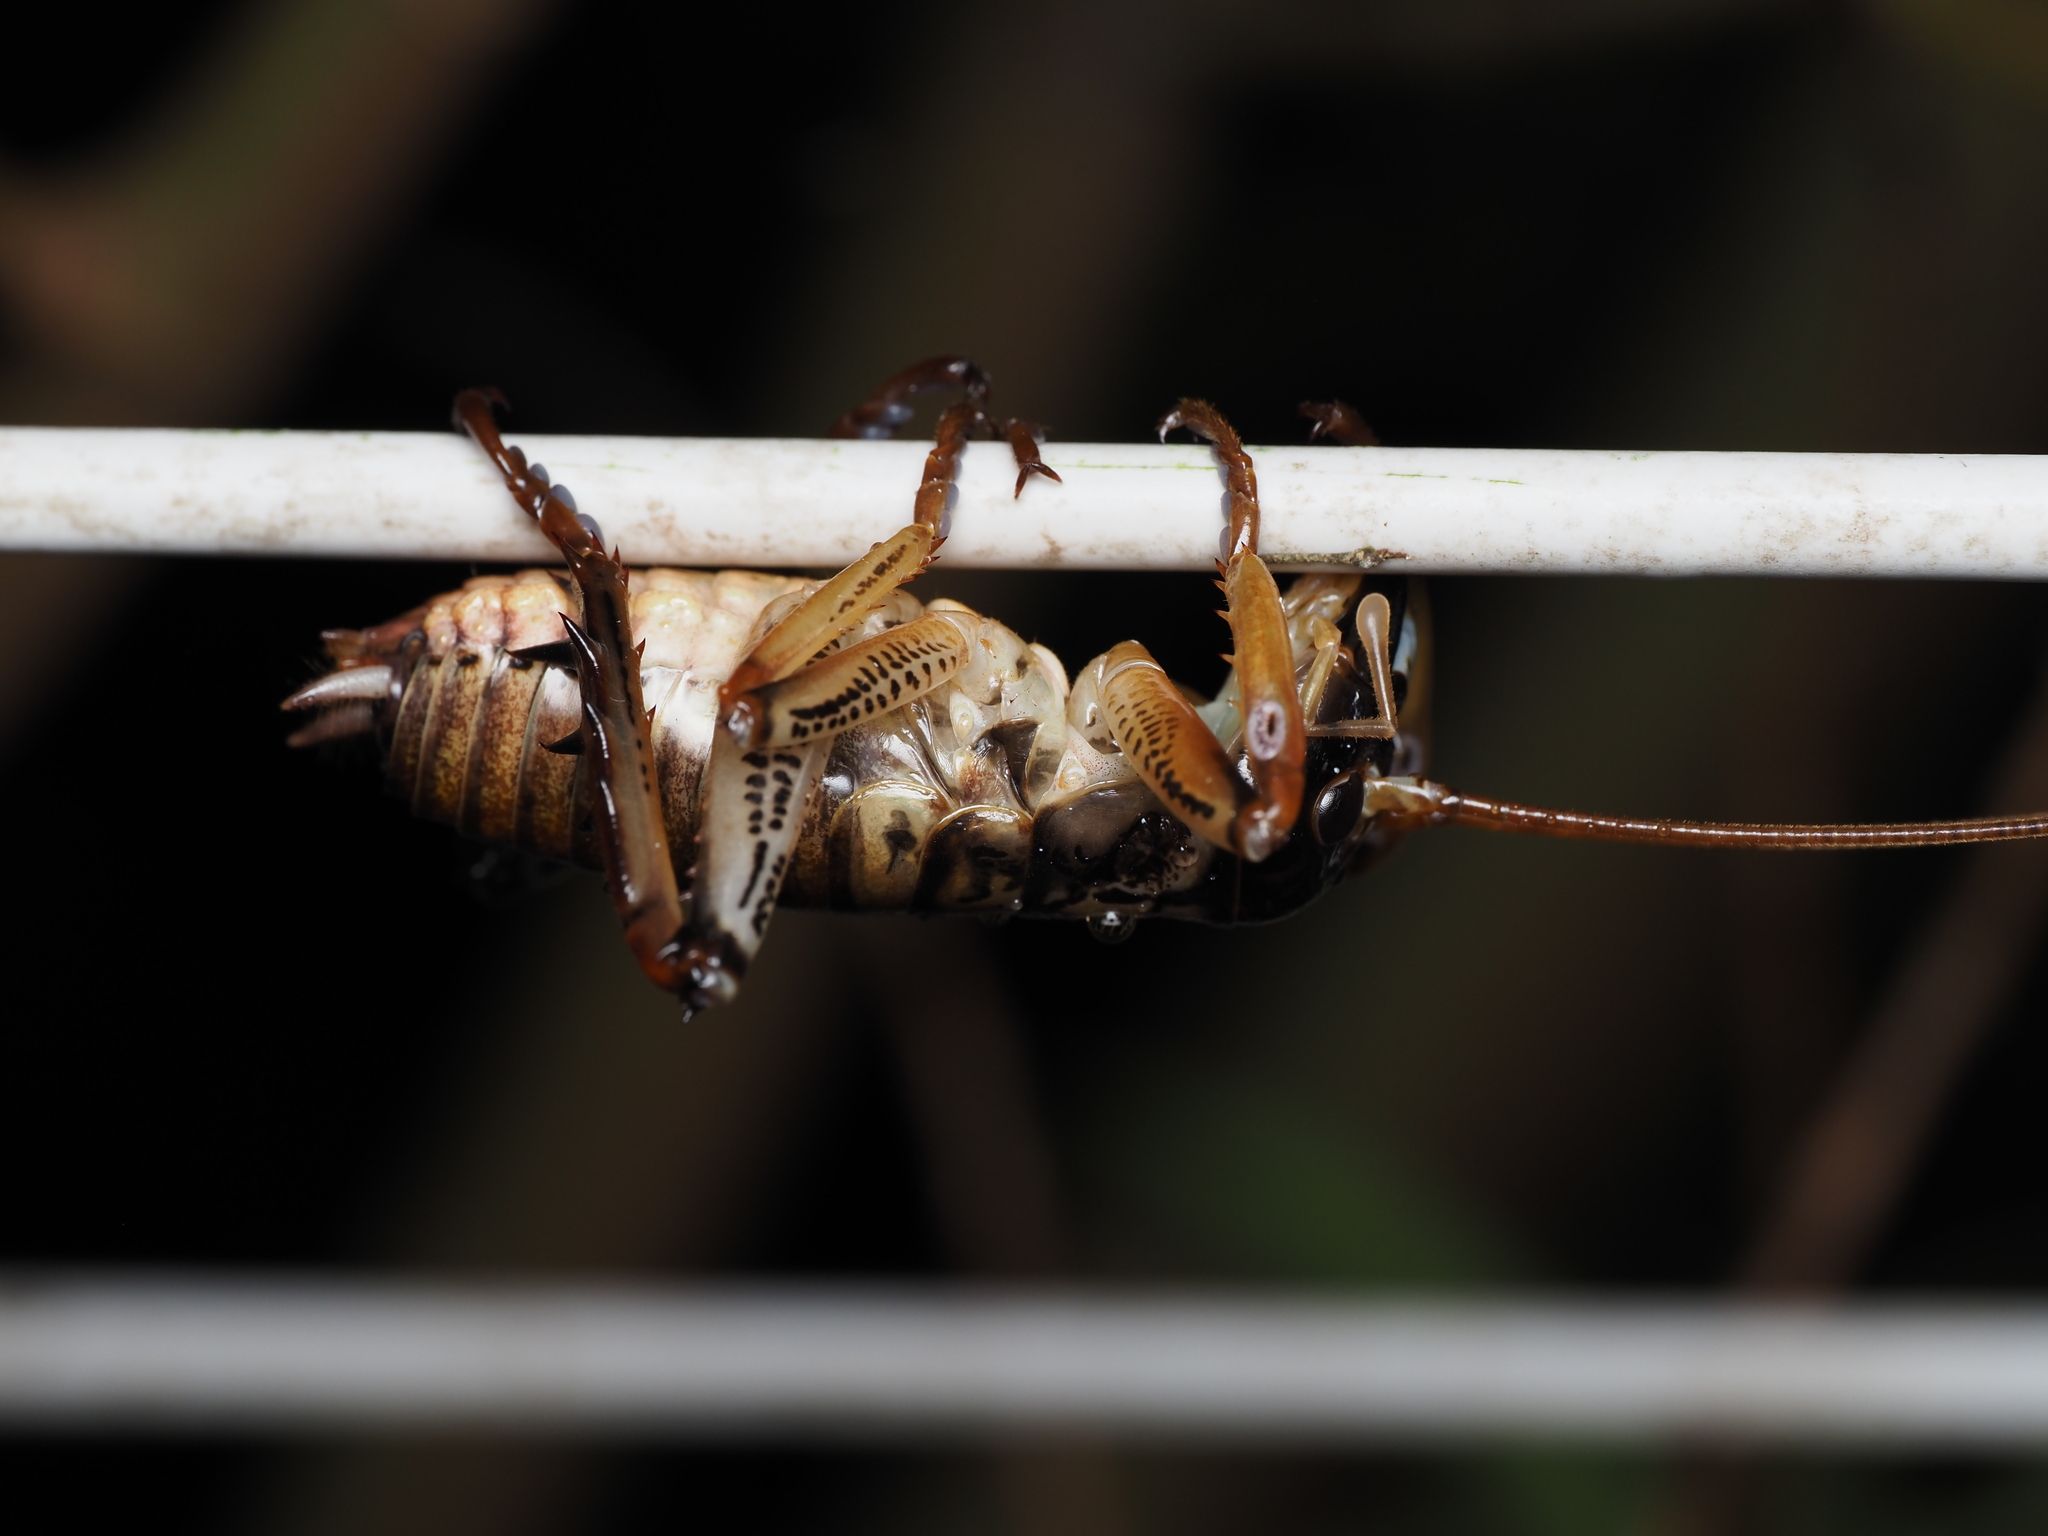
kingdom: Animalia
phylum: Arthropoda
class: Insecta
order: Orthoptera
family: Anostostomatidae
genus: Hemideina
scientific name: Hemideina thoracica
